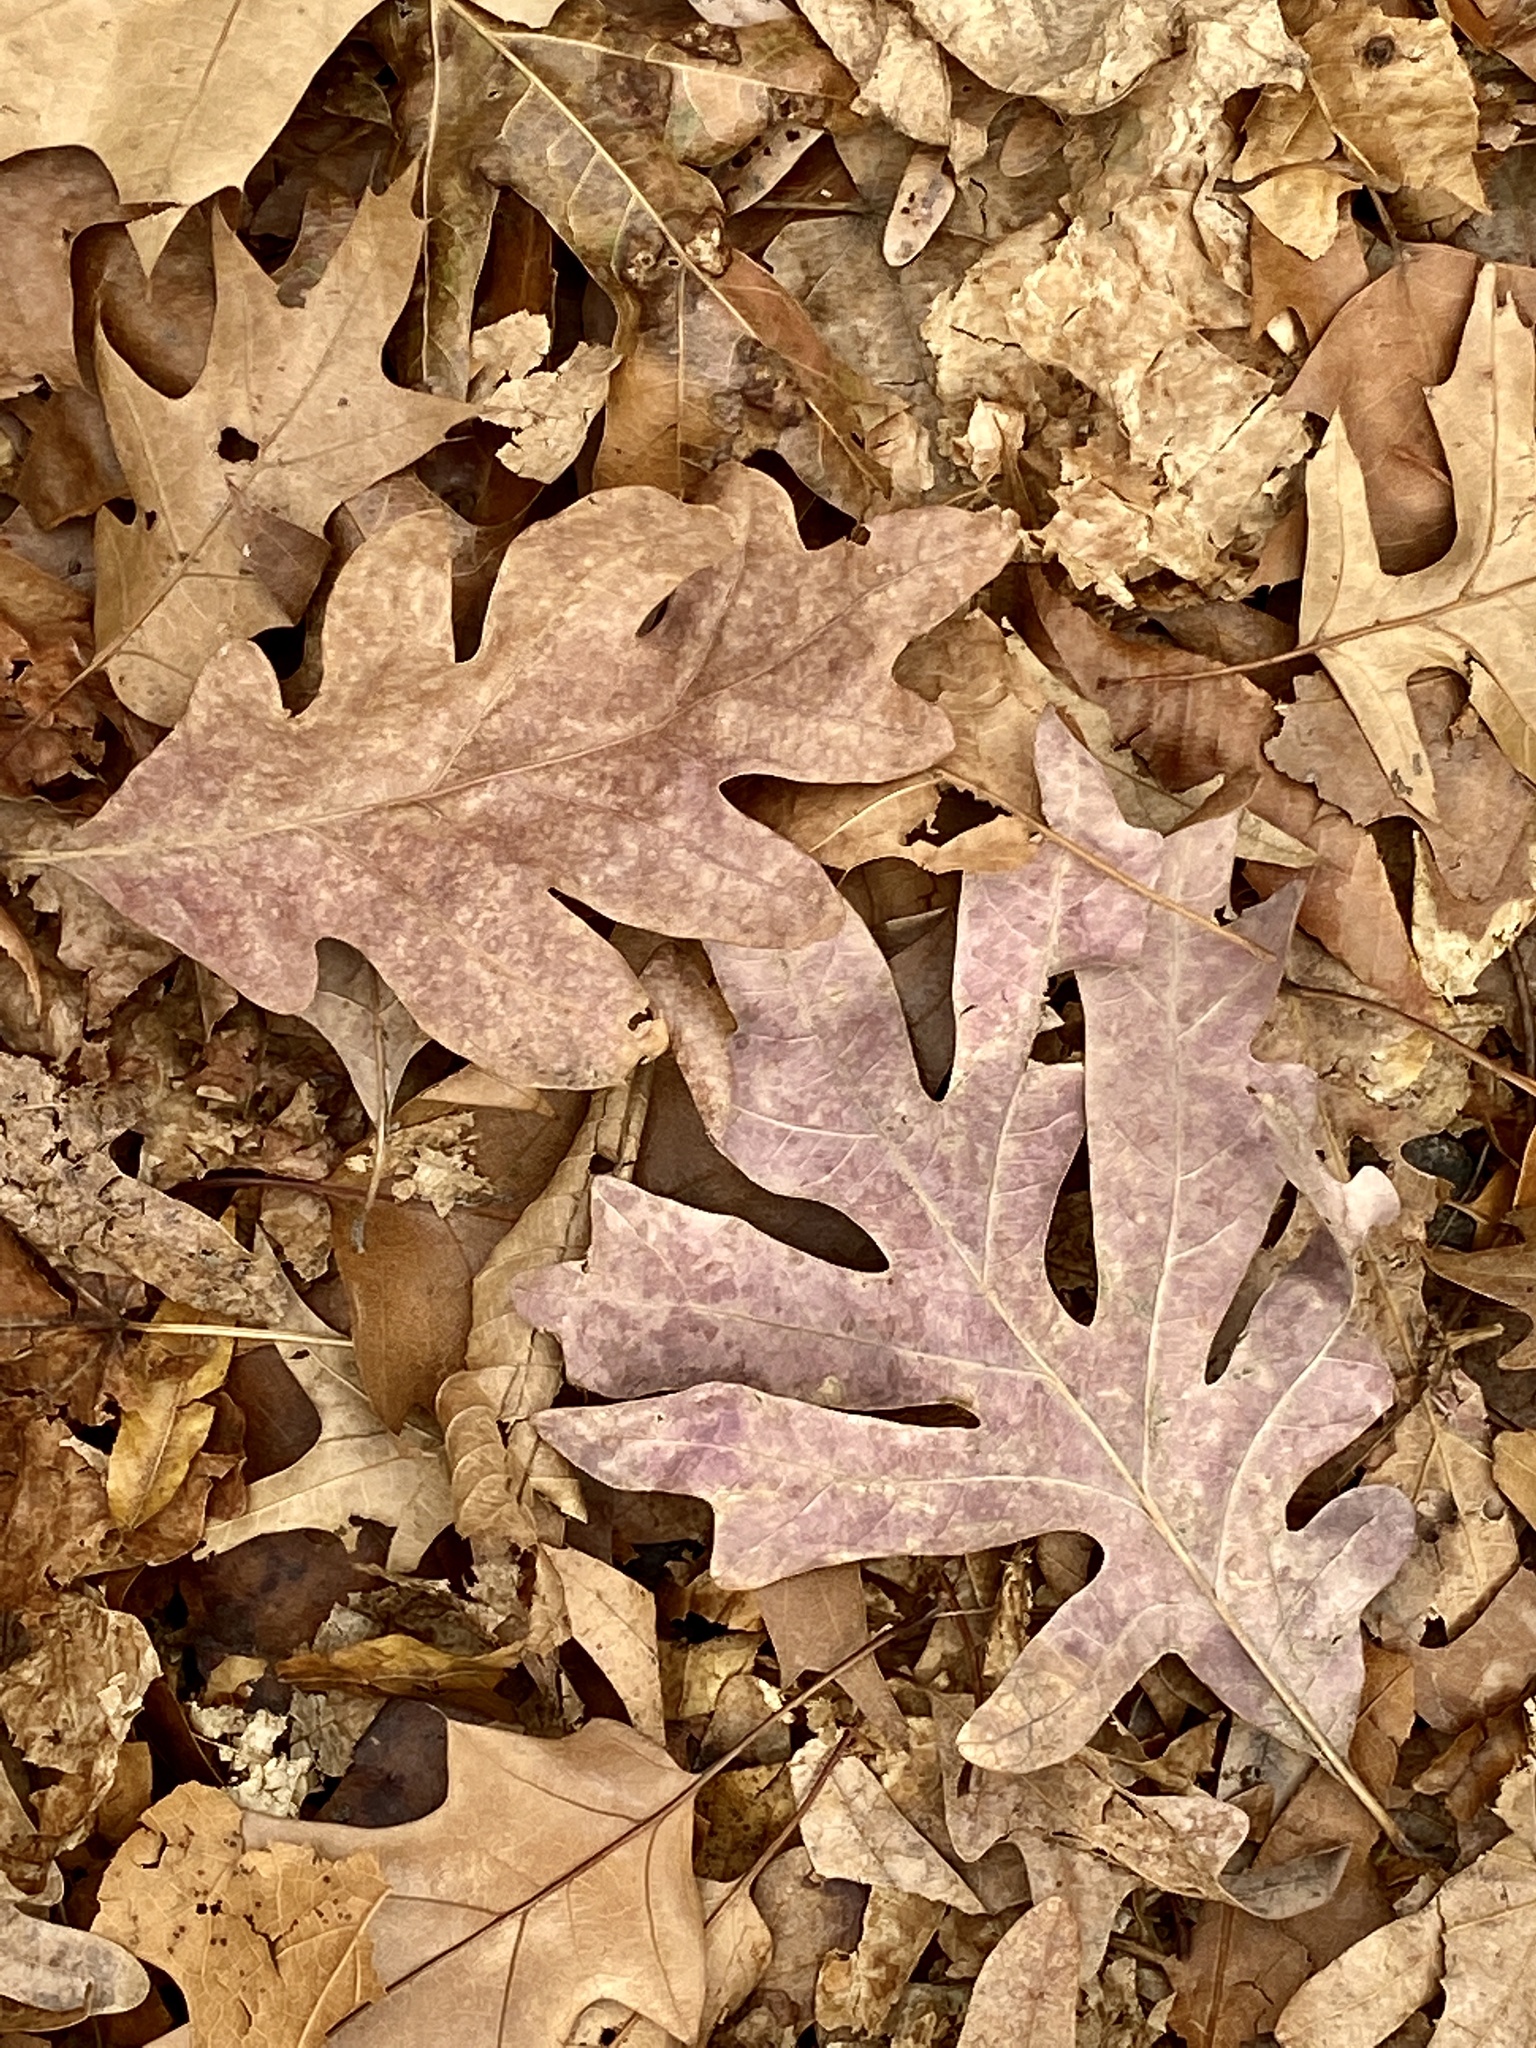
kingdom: Plantae
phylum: Tracheophyta
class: Magnoliopsida
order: Fagales
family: Fagaceae
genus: Quercus
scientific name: Quercus alba
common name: White oak
